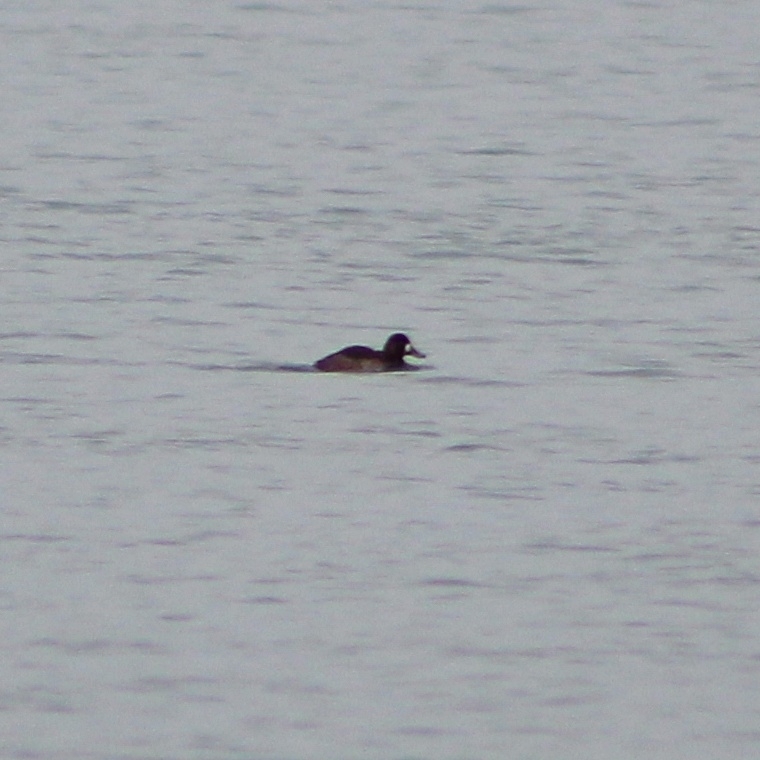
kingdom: Animalia
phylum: Chordata
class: Aves
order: Anseriformes
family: Anatidae
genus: Aythya
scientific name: Aythya marila
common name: Greater scaup
